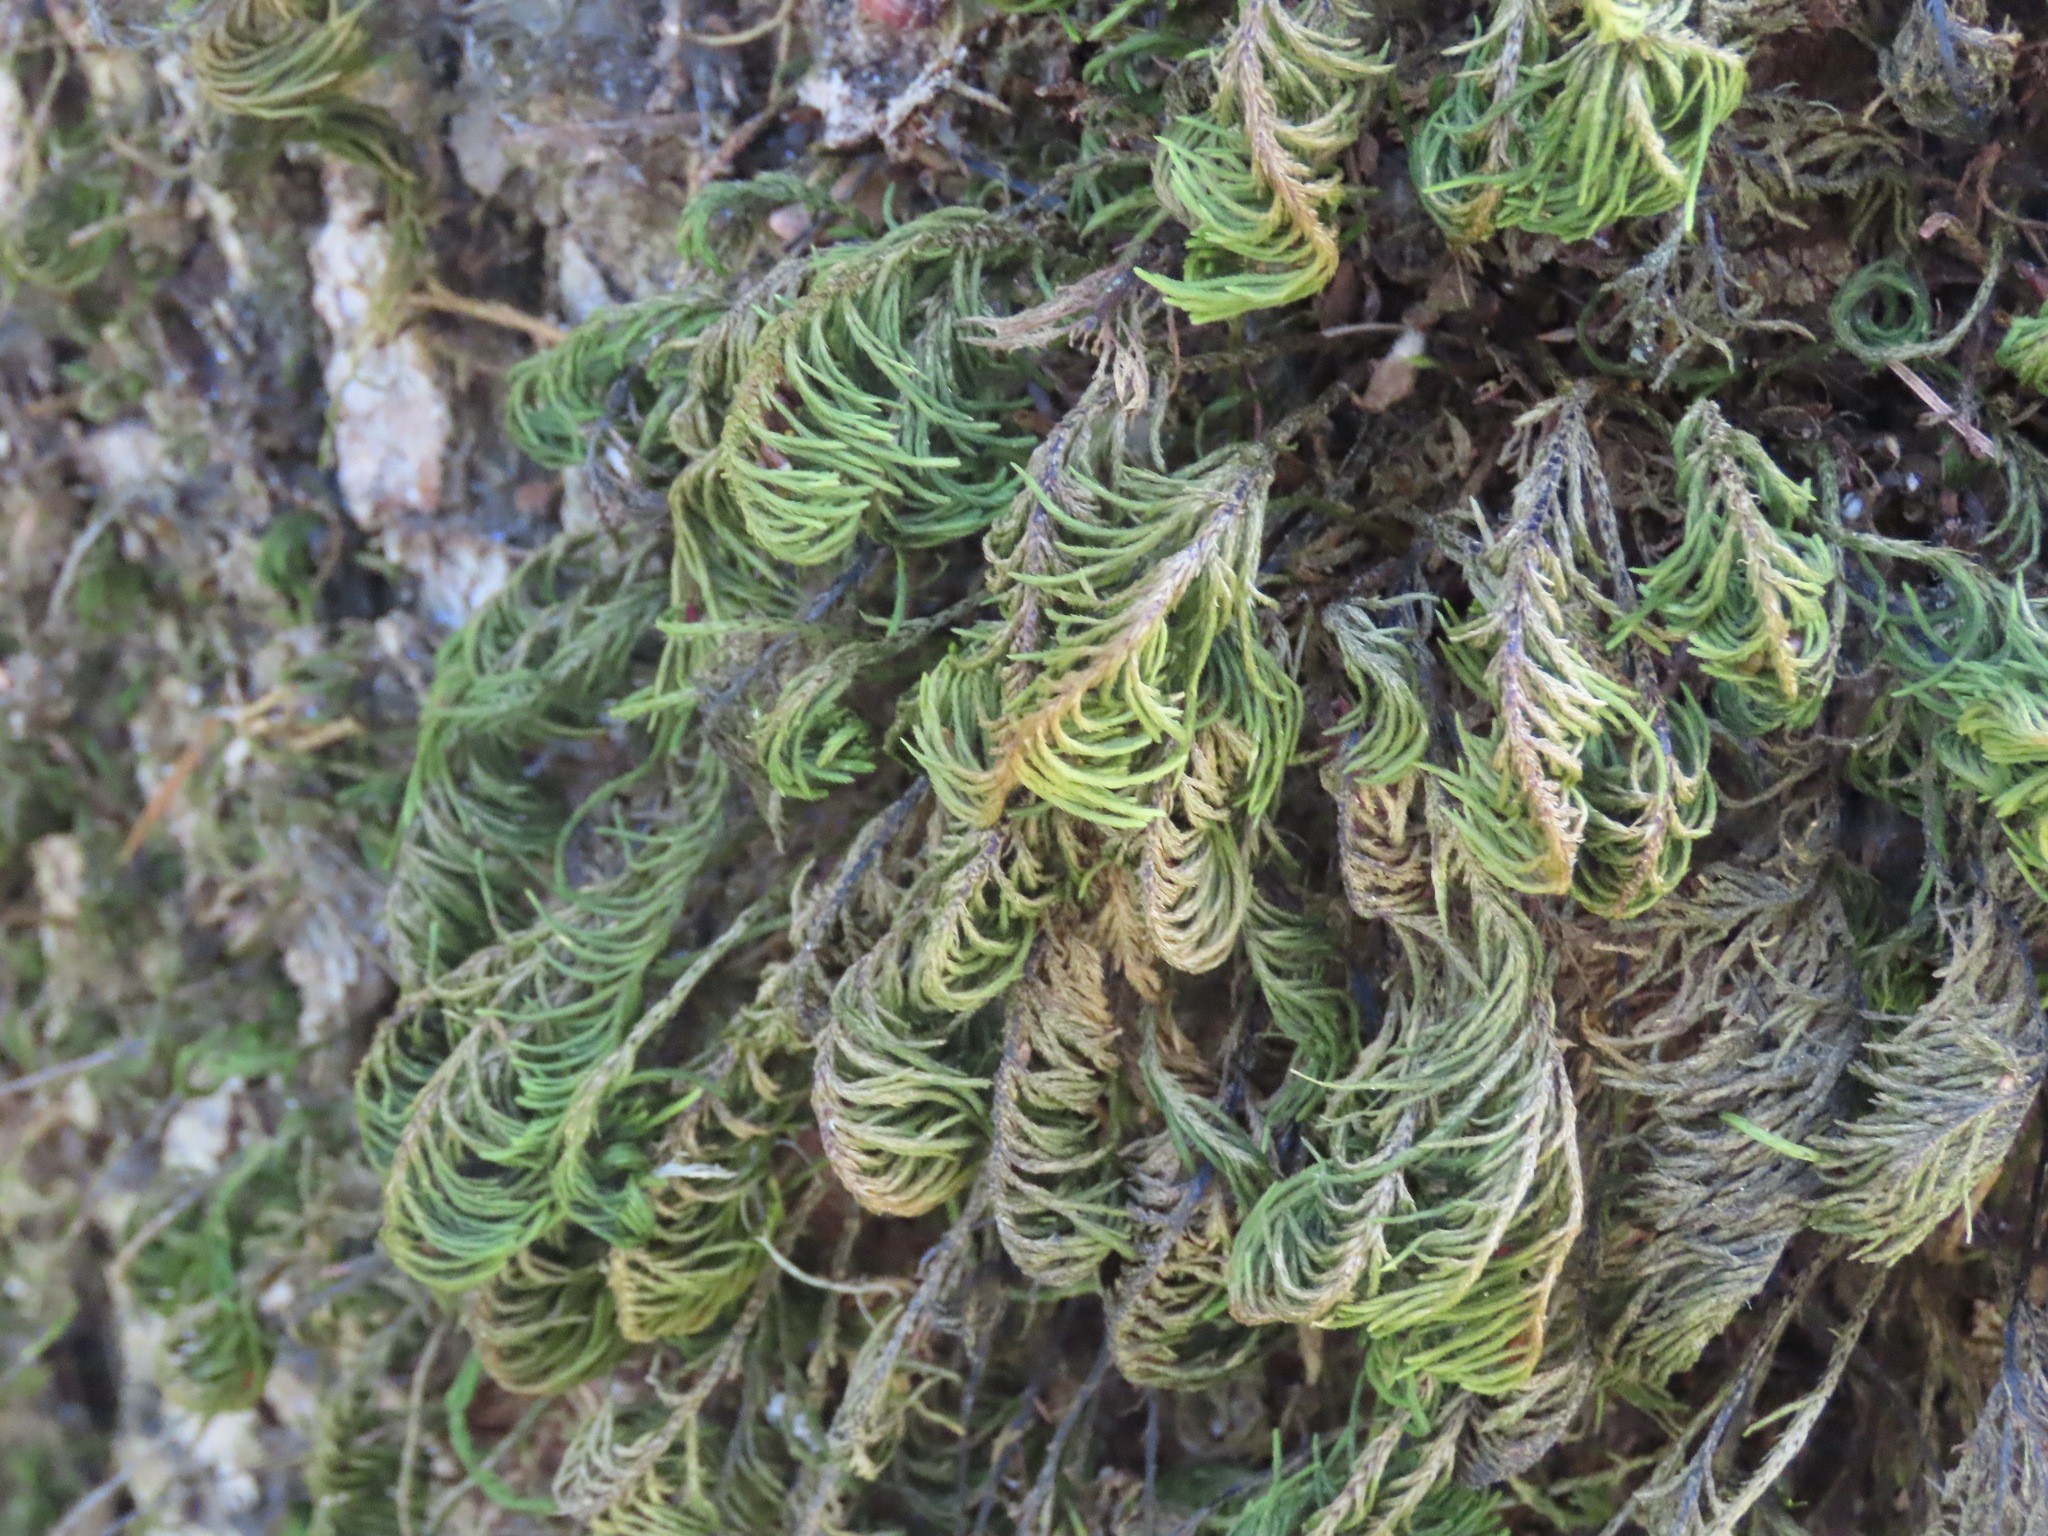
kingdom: Plantae
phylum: Bryophyta
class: Bryopsida
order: Hypnales
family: Cryphaeaceae
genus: Dendroalsia
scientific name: Dendroalsia abietina
